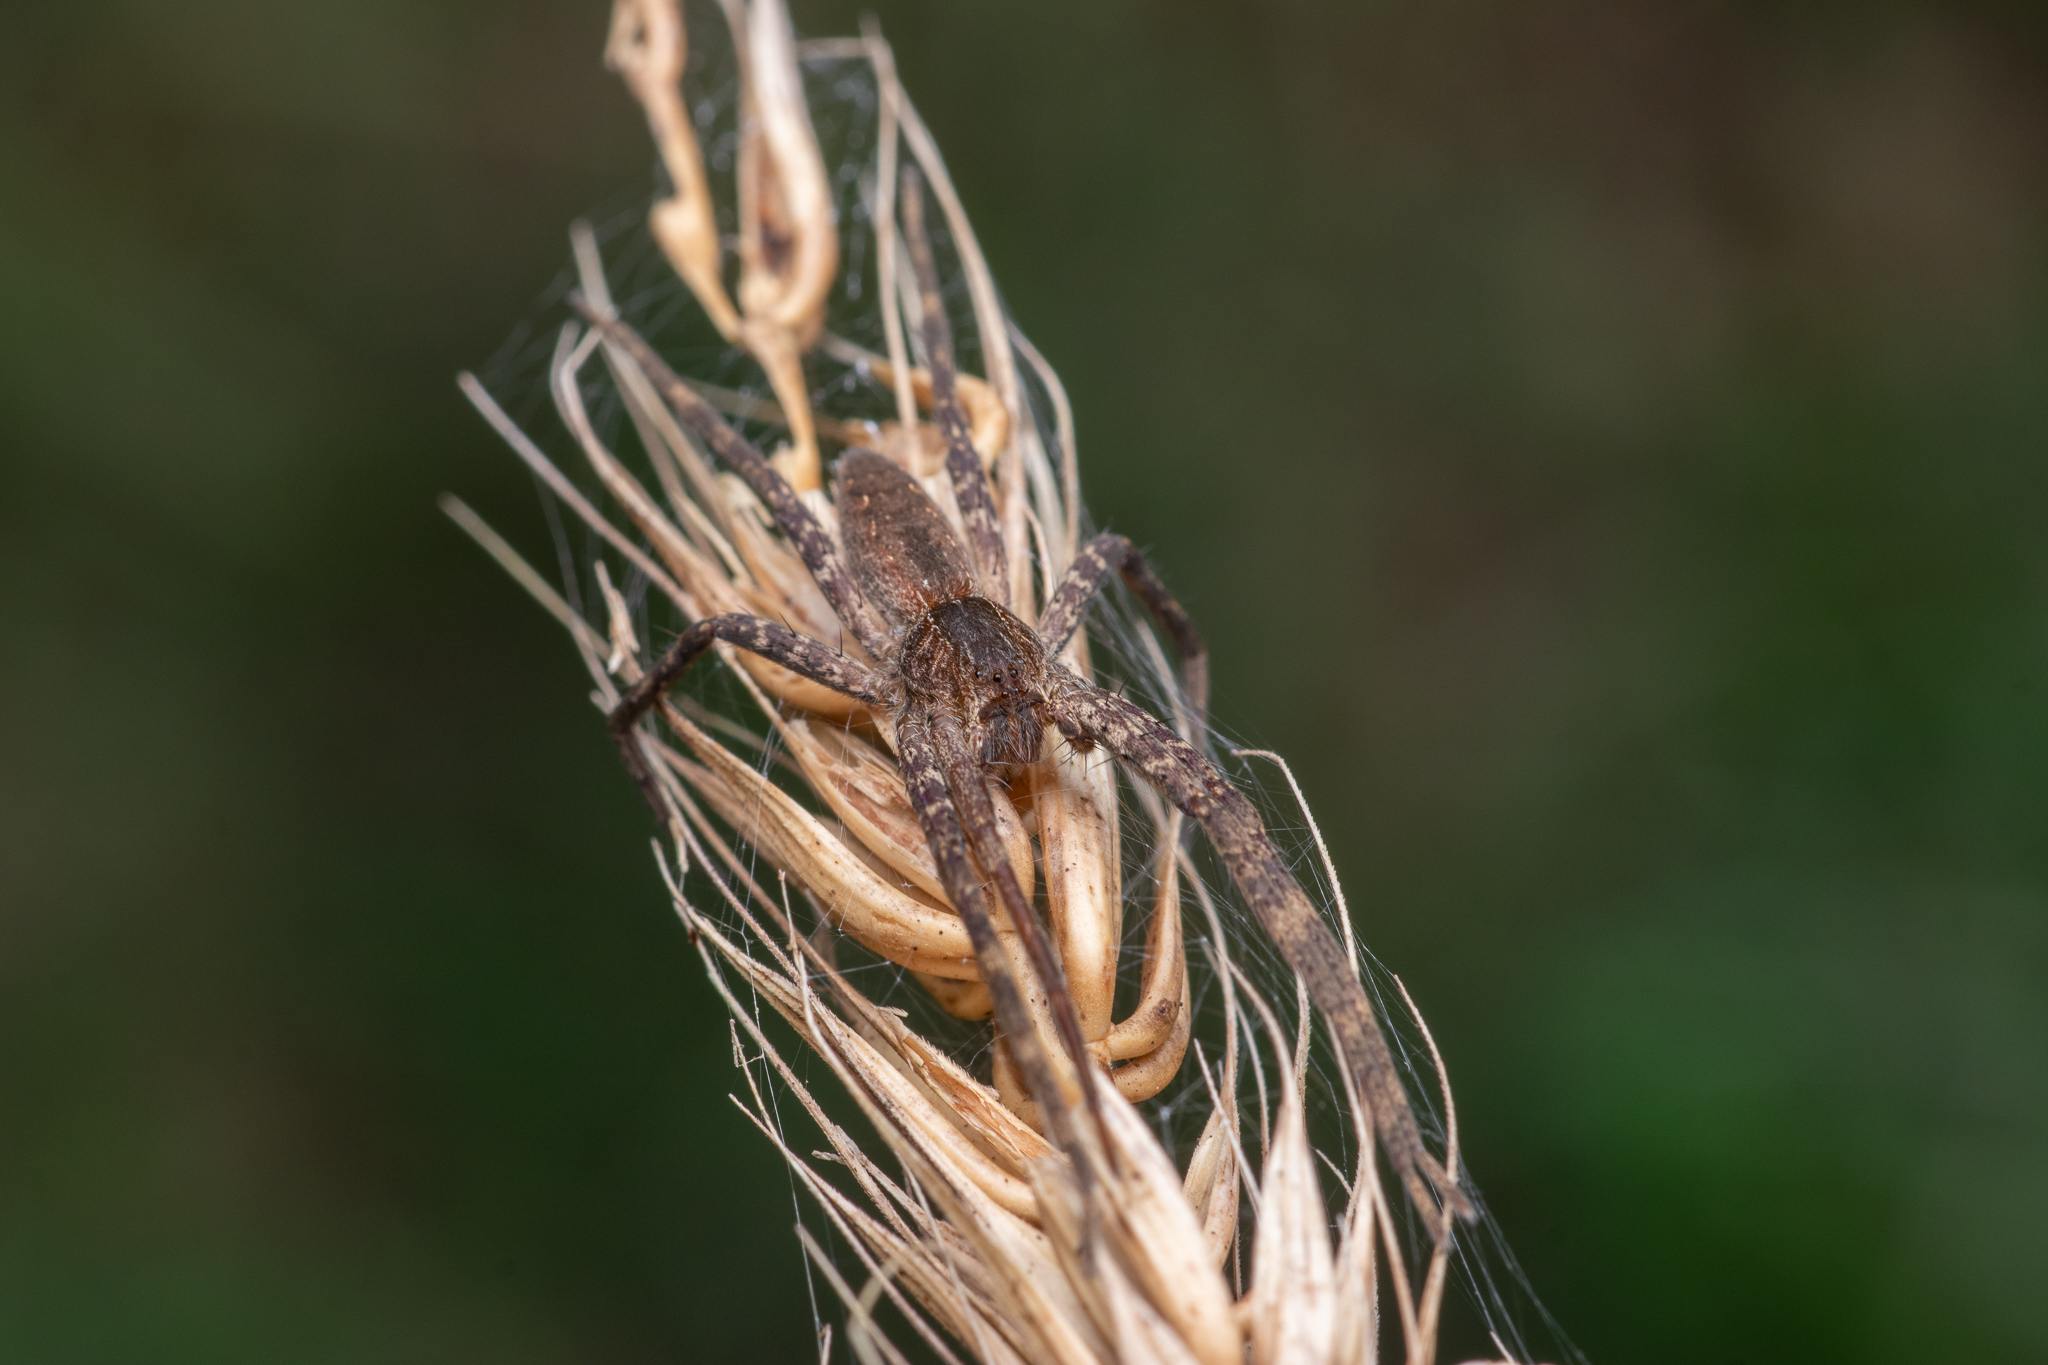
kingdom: Animalia
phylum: Arthropoda
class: Arachnida
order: Araneae
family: Pisauridae
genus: Pisaurina
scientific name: Pisaurina mira
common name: American nursery web spider
